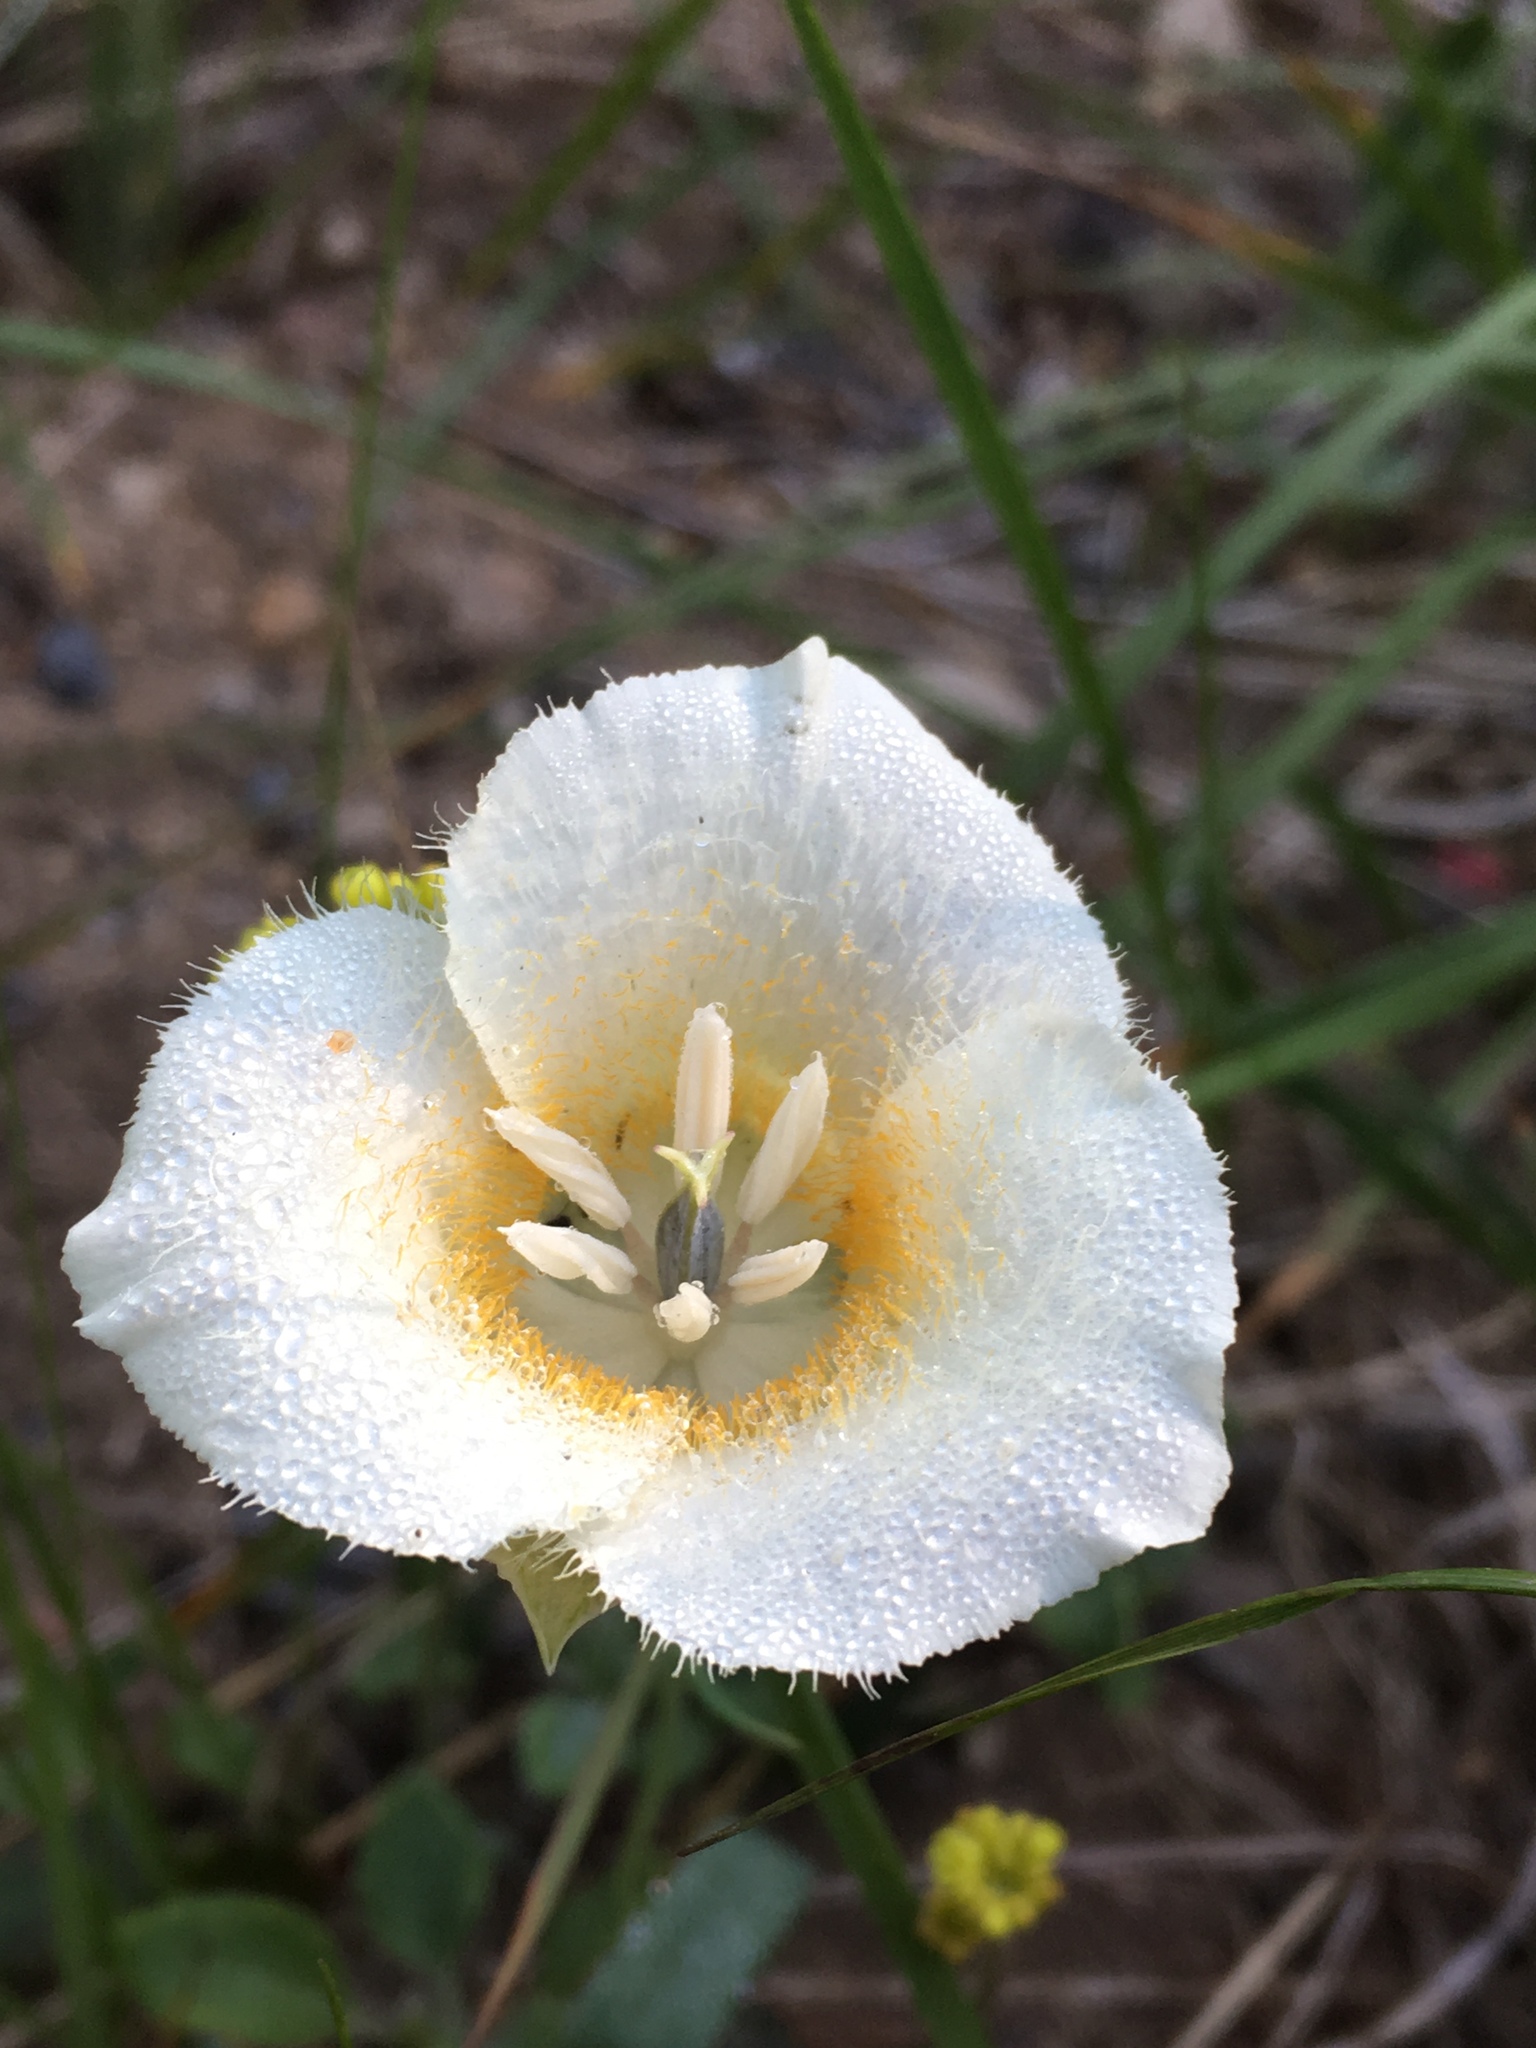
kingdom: Plantae
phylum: Tracheophyta
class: Liliopsida
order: Liliales
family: Liliaceae
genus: Calochortus
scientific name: Calochortus subalpinus
